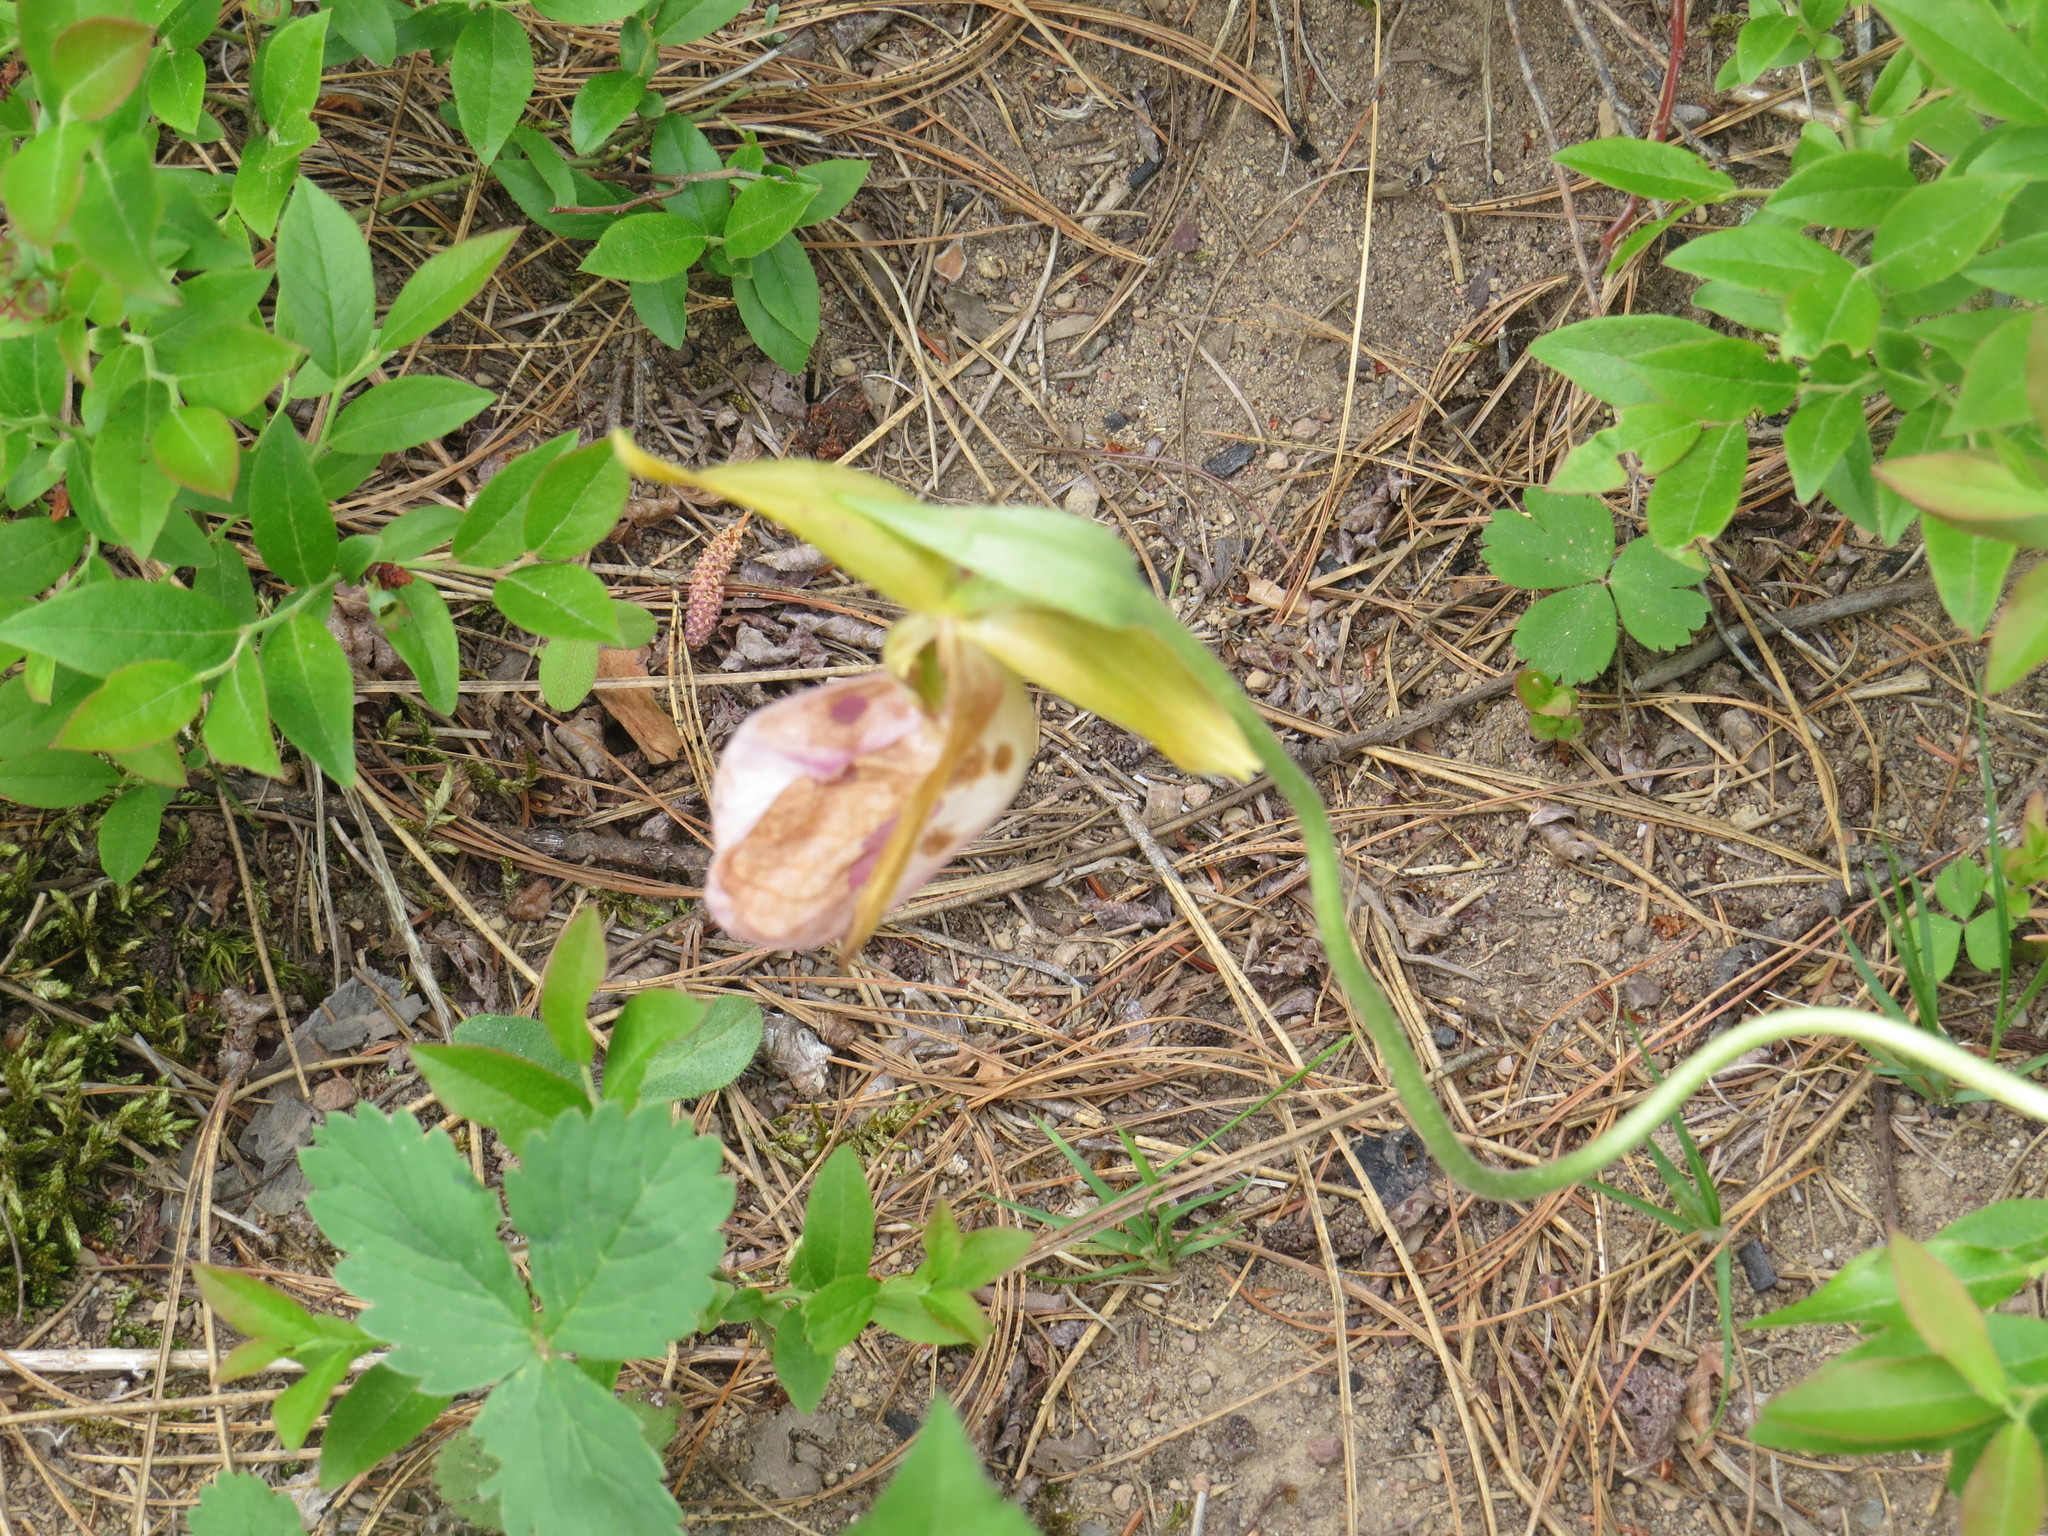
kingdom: Plantae
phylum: Tracheophyta
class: Liliopsida
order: Asparagales
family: Orchidaceae
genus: Cypripedium
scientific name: Cypripedium acaule
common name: Pink lady's-slipper
